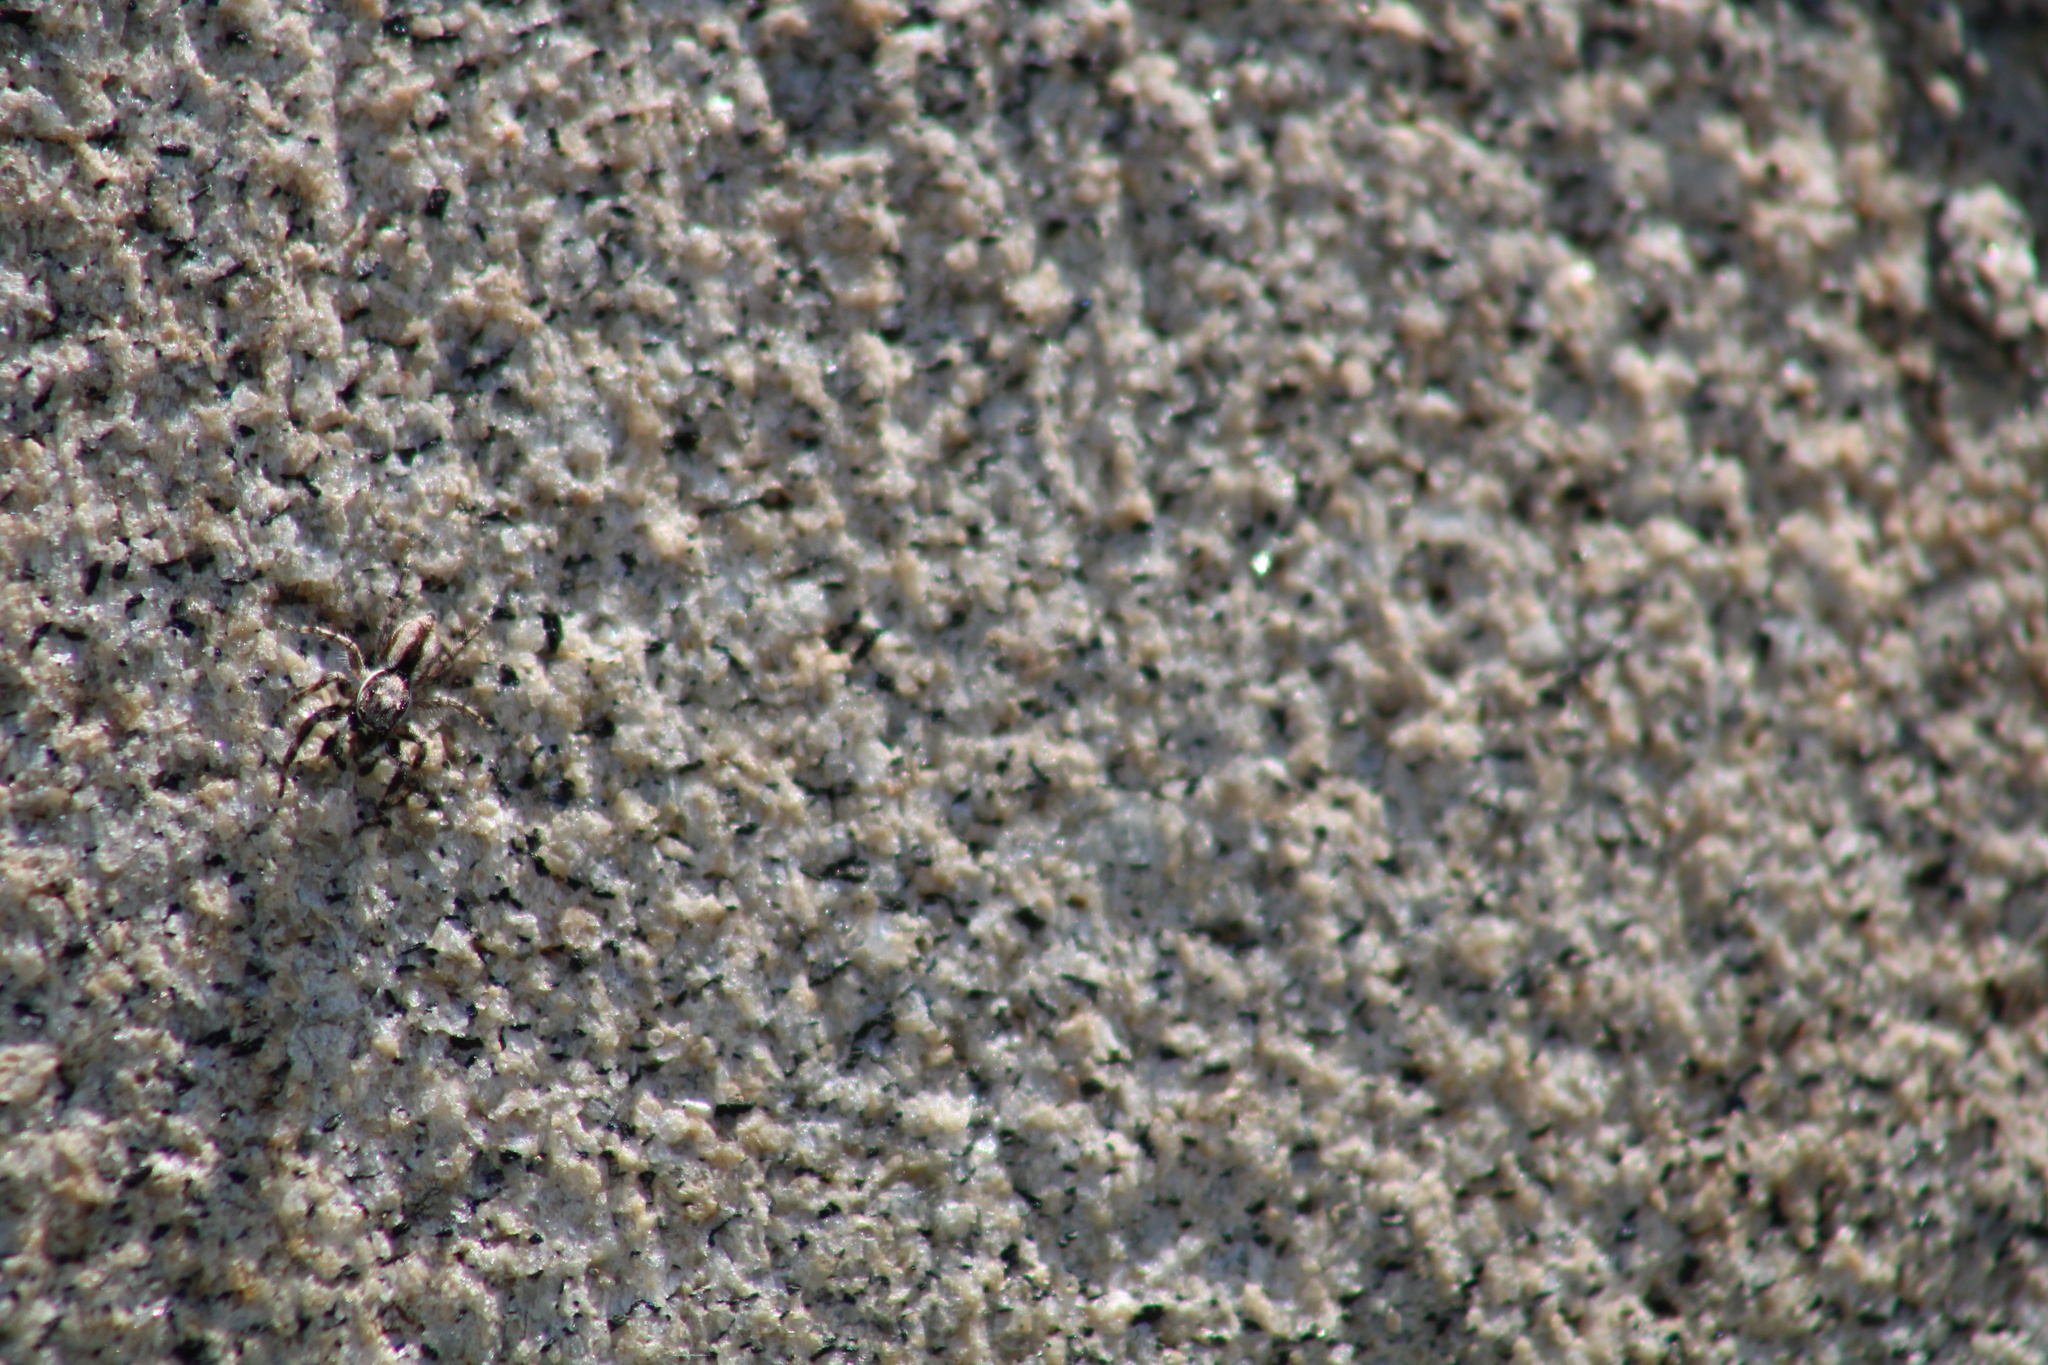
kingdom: Animalia
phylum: Arthropoda
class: Arachnida
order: Araneae
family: Salticidae
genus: Menemerus
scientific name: Menemerus bivittatus
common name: Gray wall jumper
